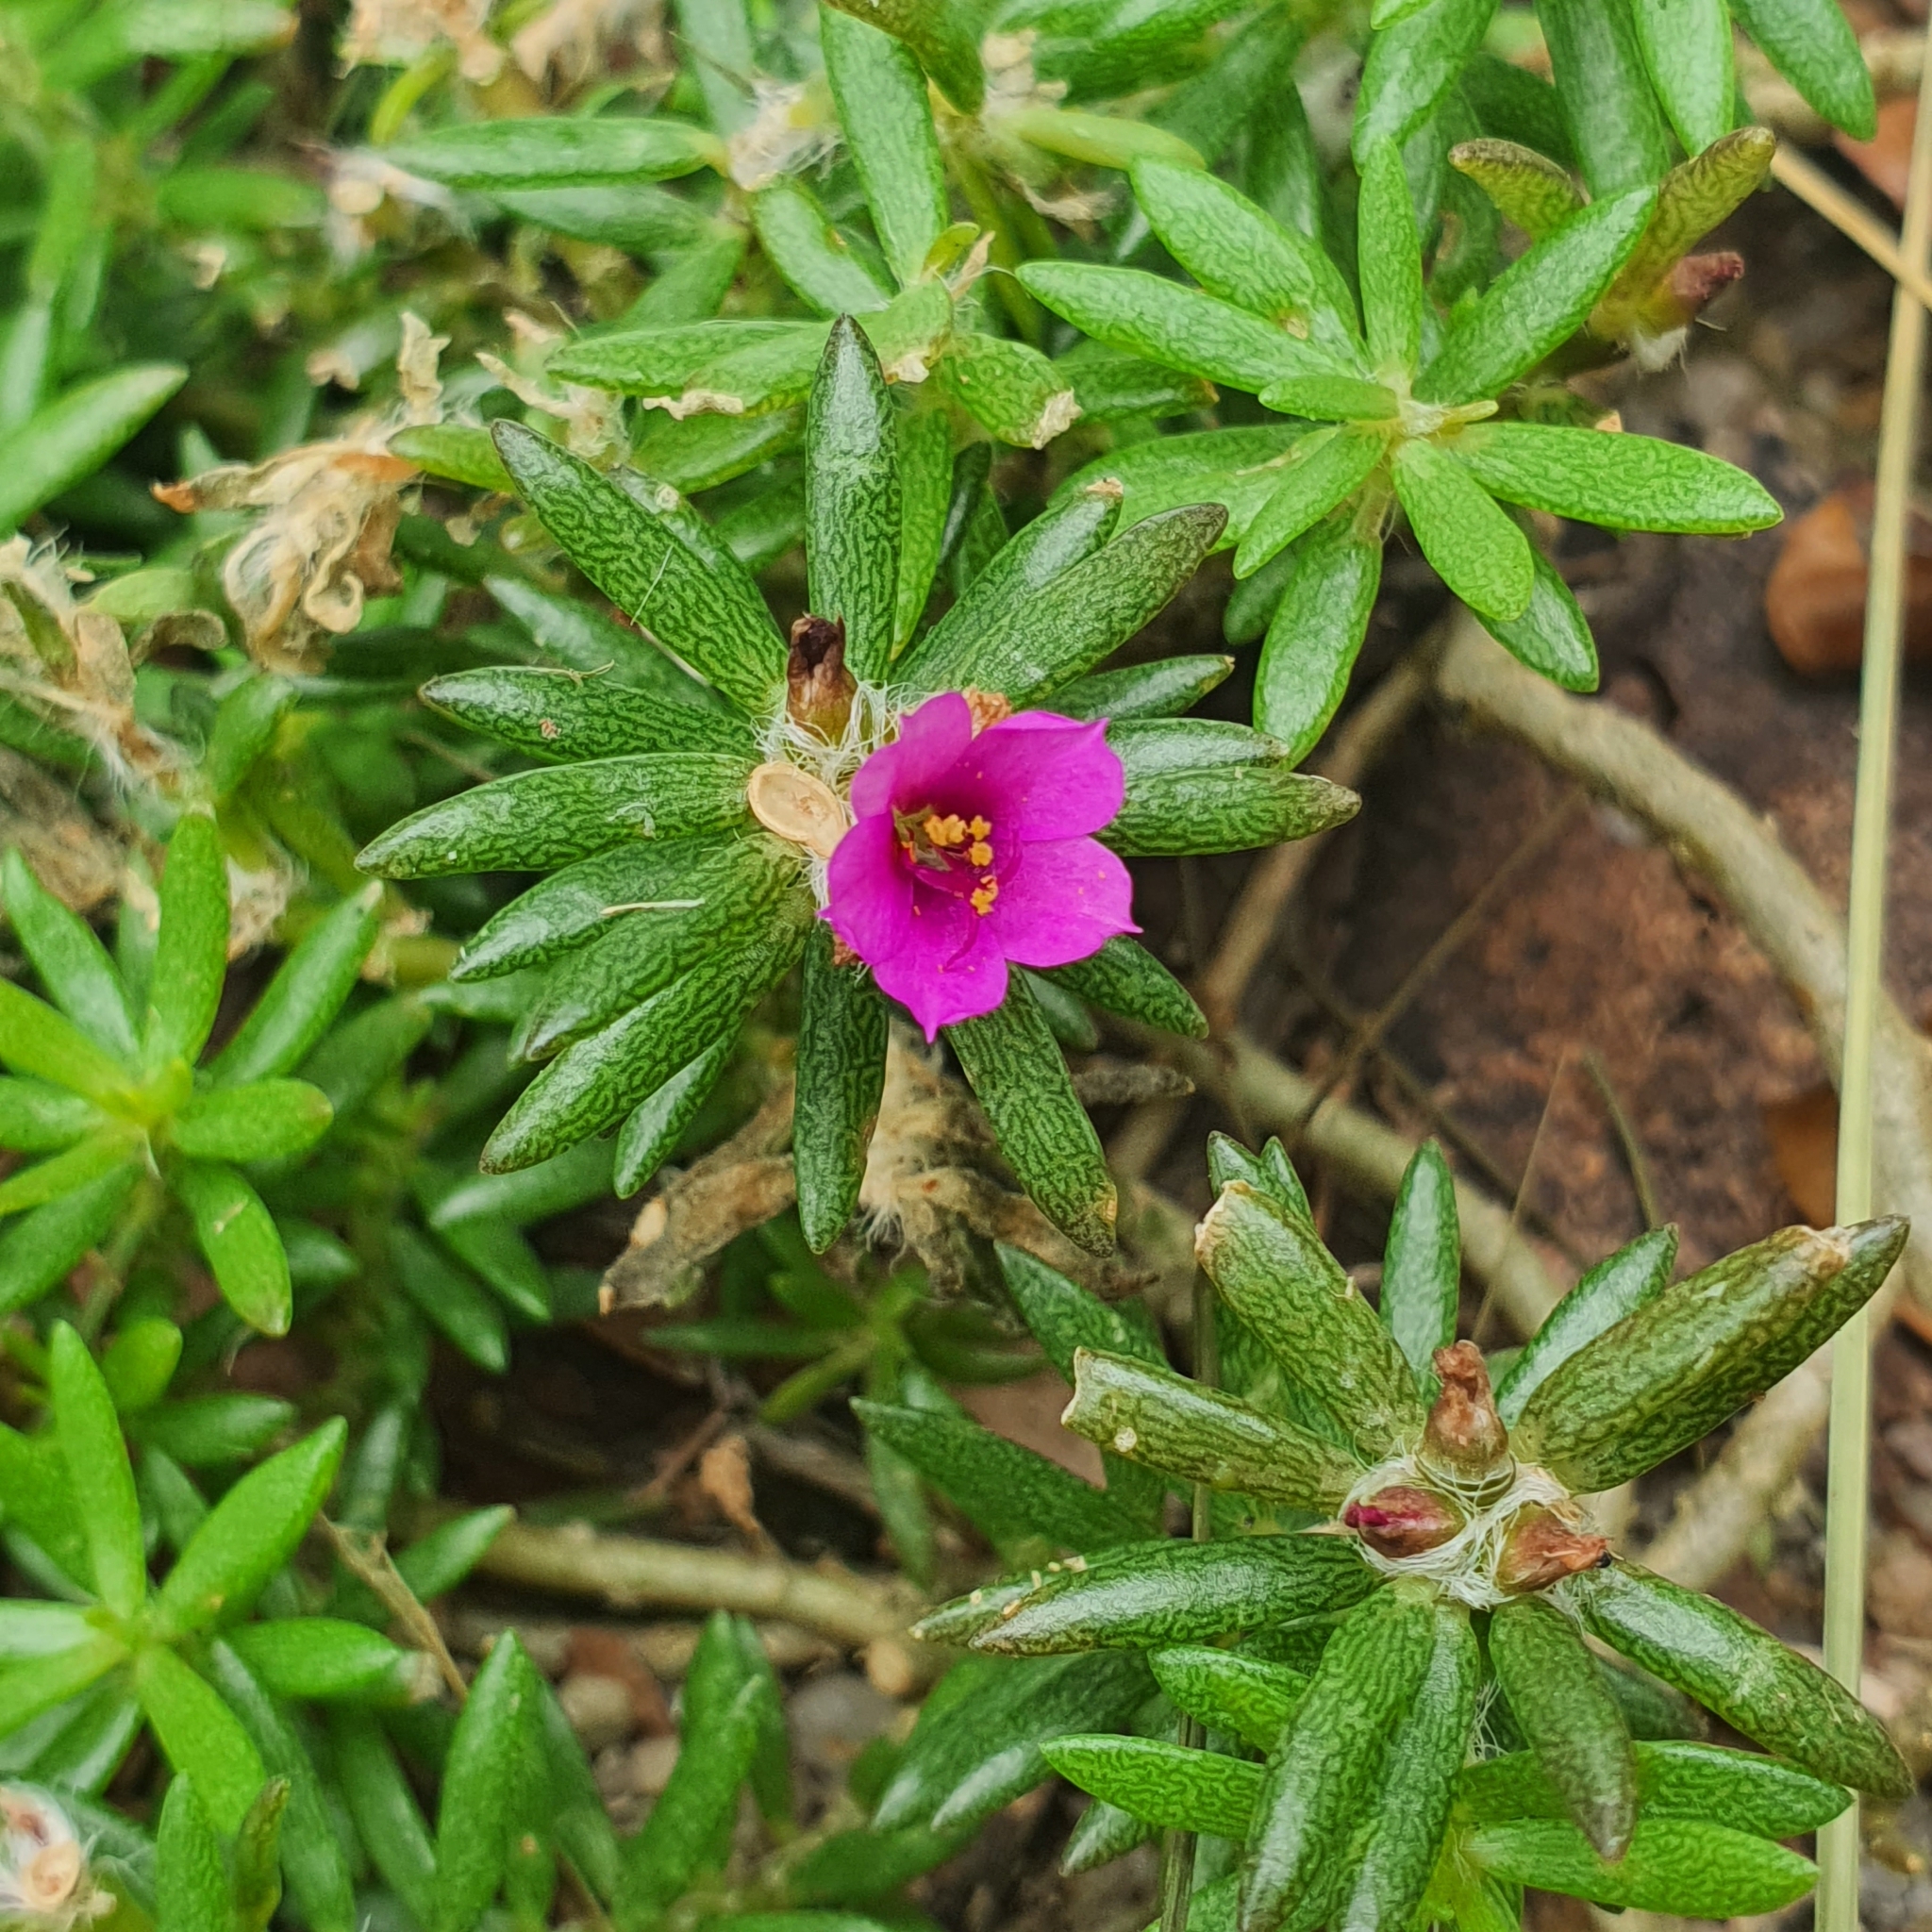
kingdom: Plantae
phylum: Tracheophyta
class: Magnoliopsida
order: Caryophyllales
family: Portulacaceae
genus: Portulaca
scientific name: Portulaca pilosa
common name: Kiss me quick
